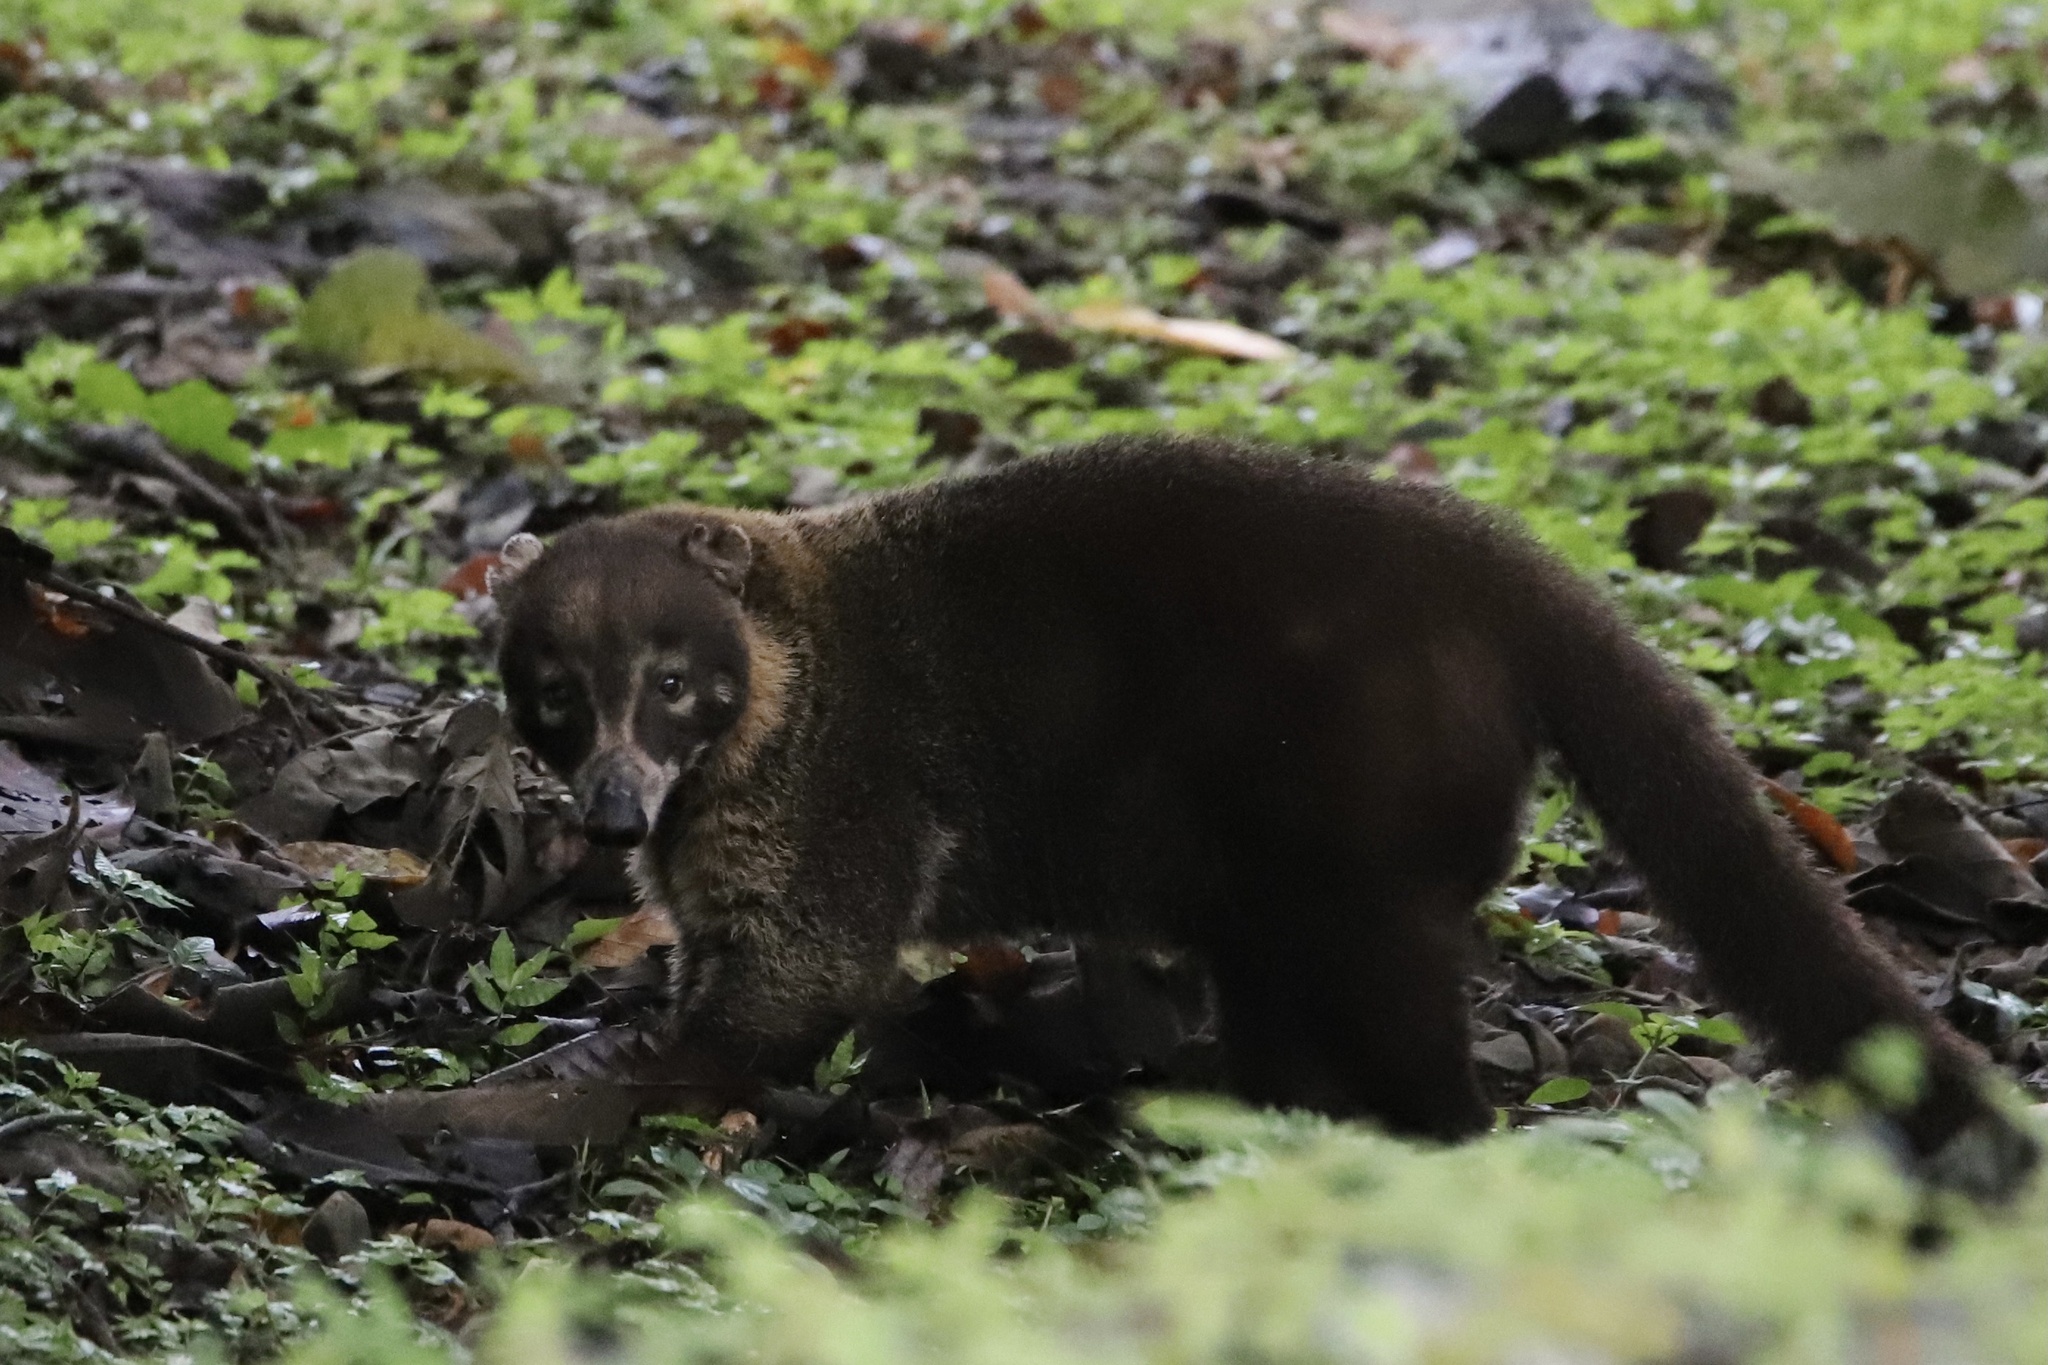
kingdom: Animalia
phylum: Chordata
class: Mammalia
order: Carnivora
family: Procyonidae
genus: Nasua
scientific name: Nasua narica
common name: White-nosed coati
